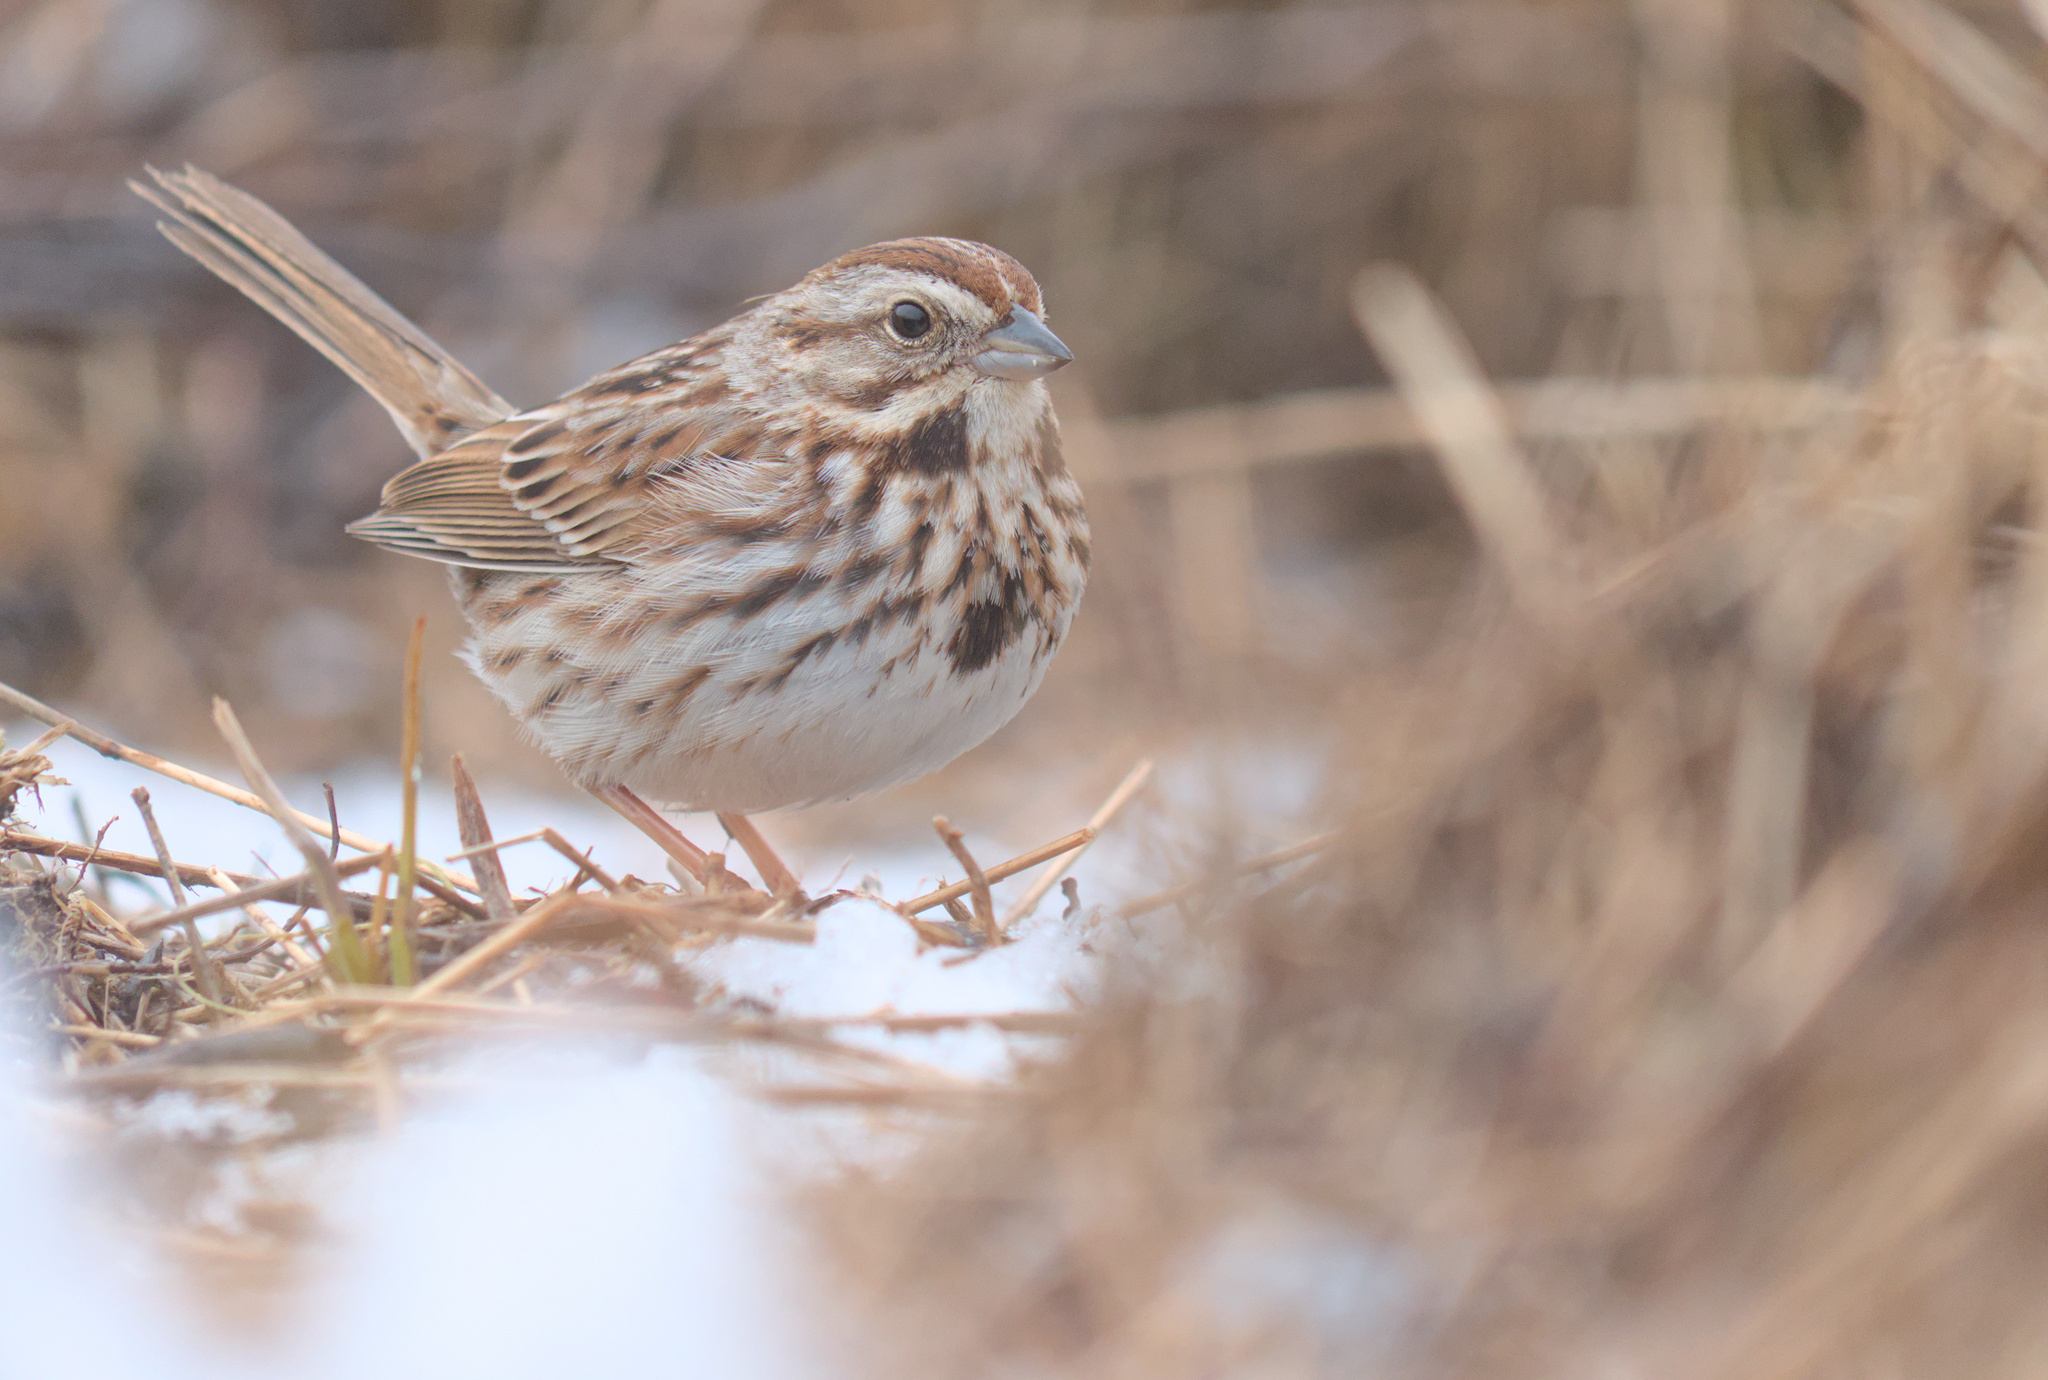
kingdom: Animalia
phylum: Chordata
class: Aves
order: Passeriformes
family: Passerellidae
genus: Melospiza
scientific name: Melospiza melodia
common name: Song sparrow
